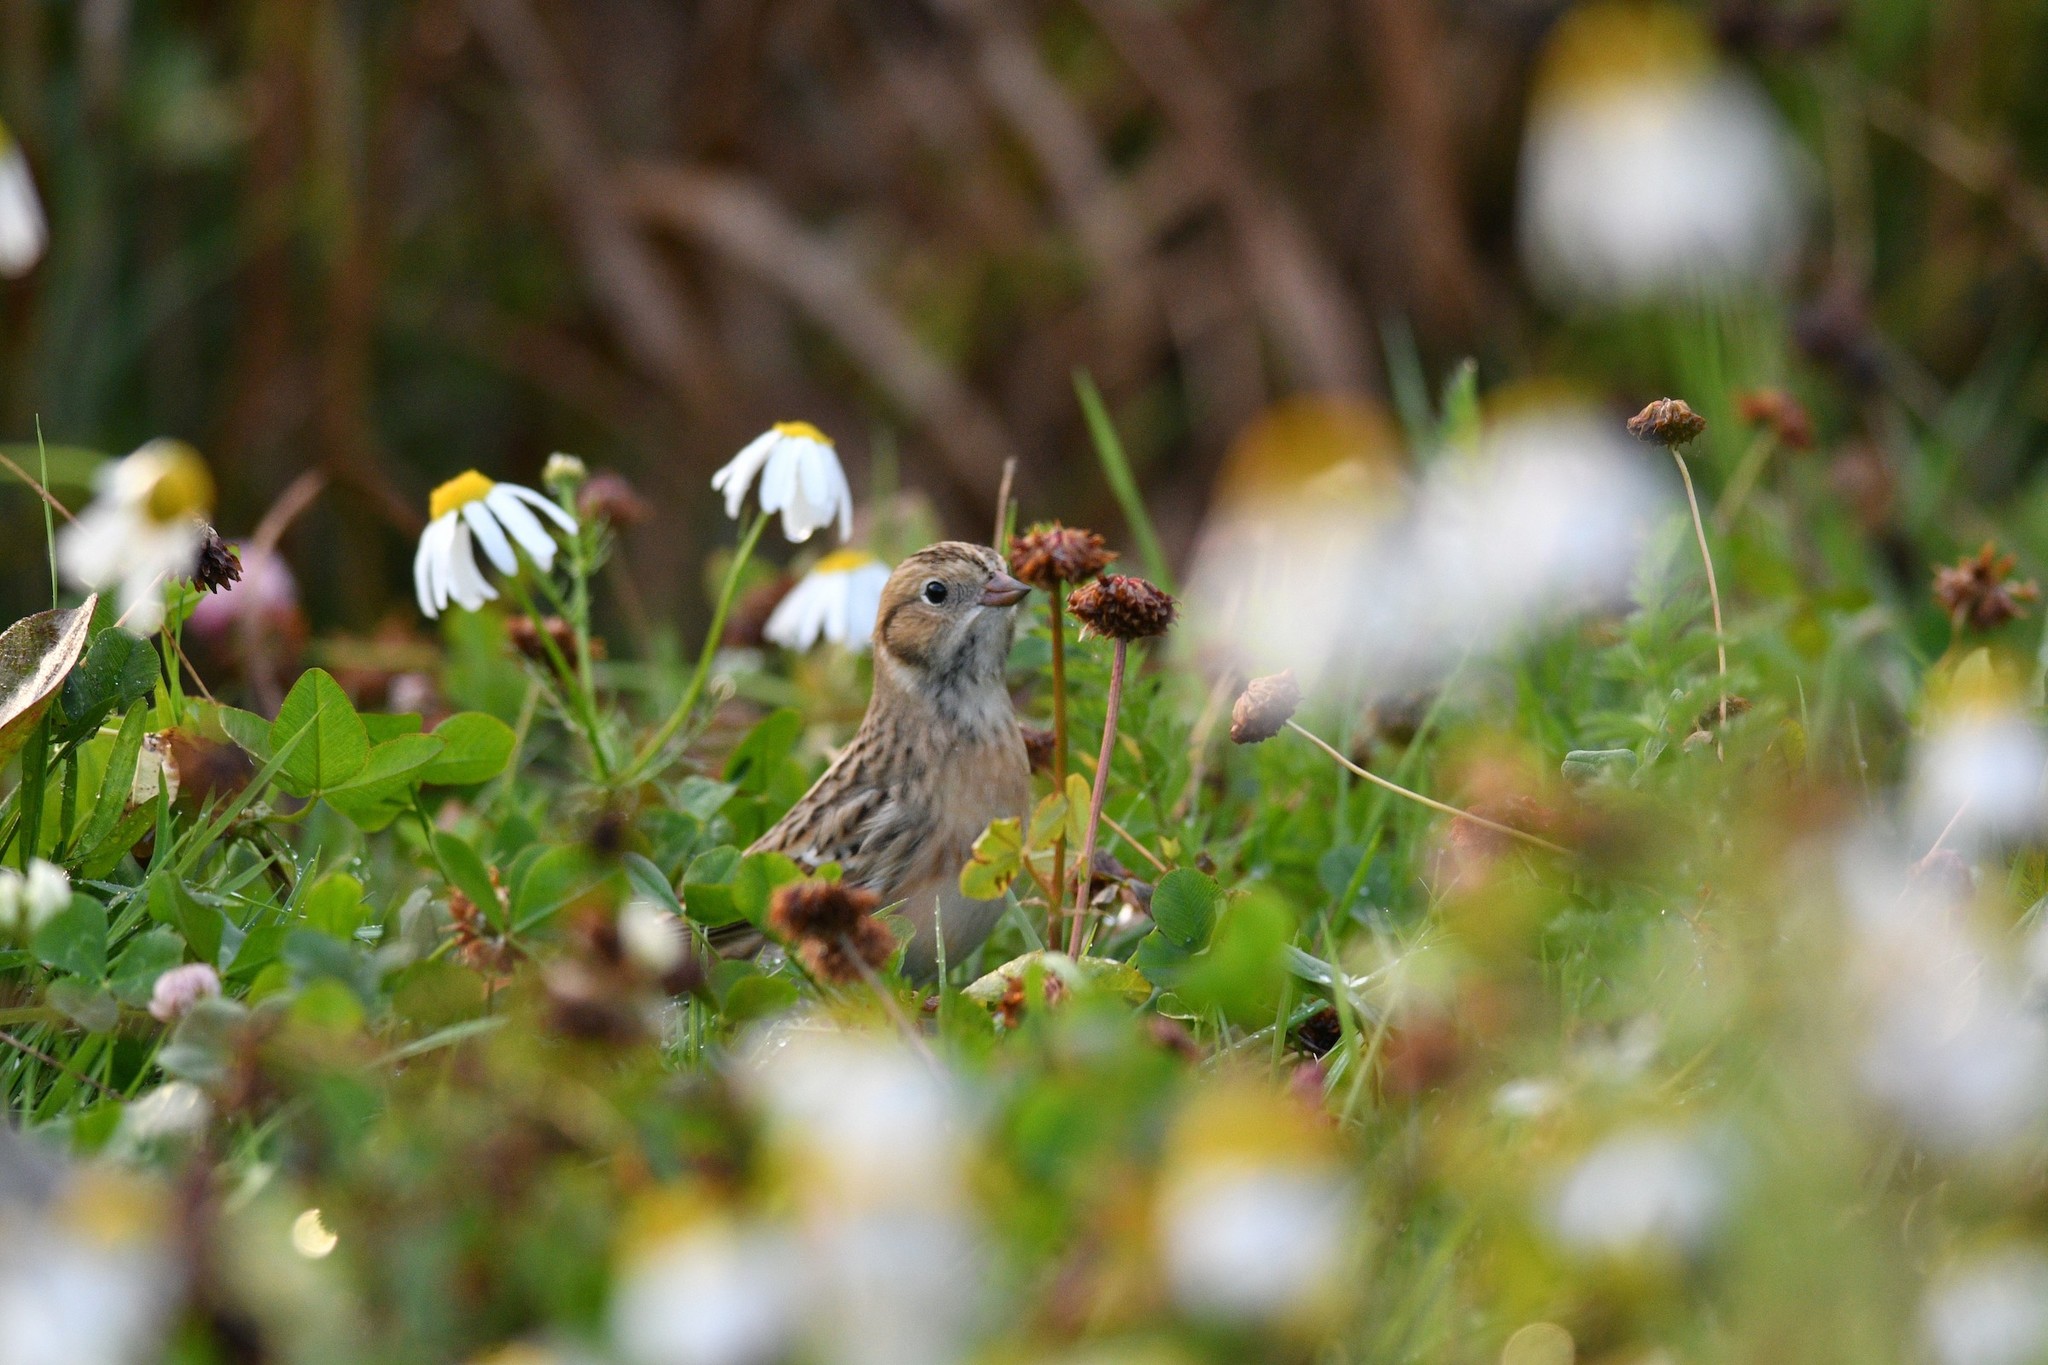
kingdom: Animalia
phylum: Chordata
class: Aves
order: Passeriformes
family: Calcariidae
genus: Calcarius
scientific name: Calcarius lapponicus
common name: Lapland longspur
